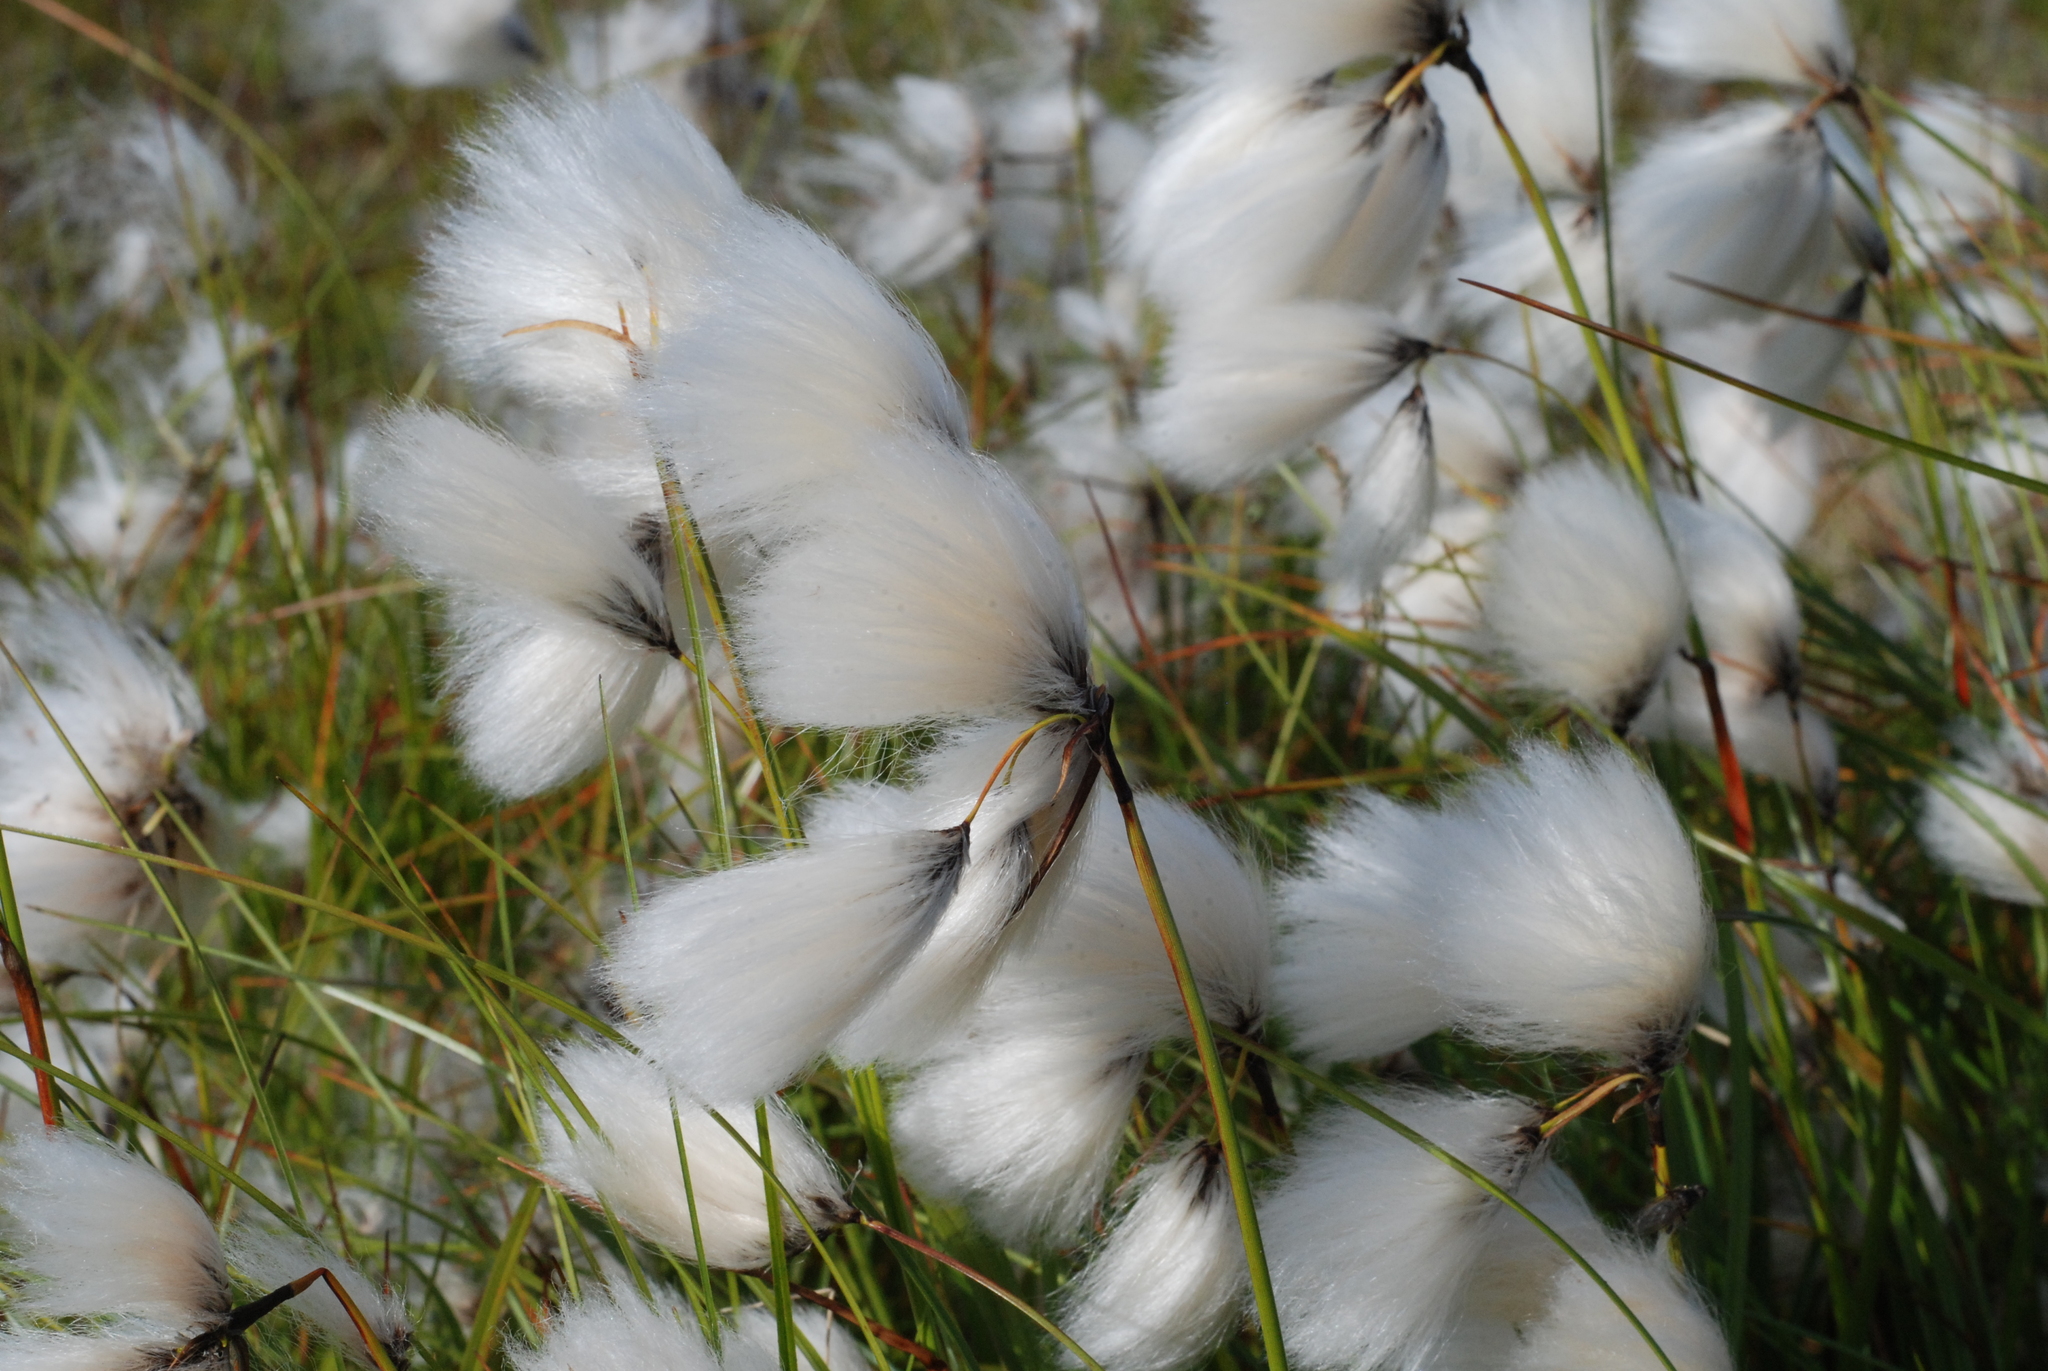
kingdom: Plantae
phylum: Tracheophyta
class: Liliopsida
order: Poales
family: Cyperaceae
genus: Eriophorum
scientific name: Eriophorum angustifolium
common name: Common cottongrass
